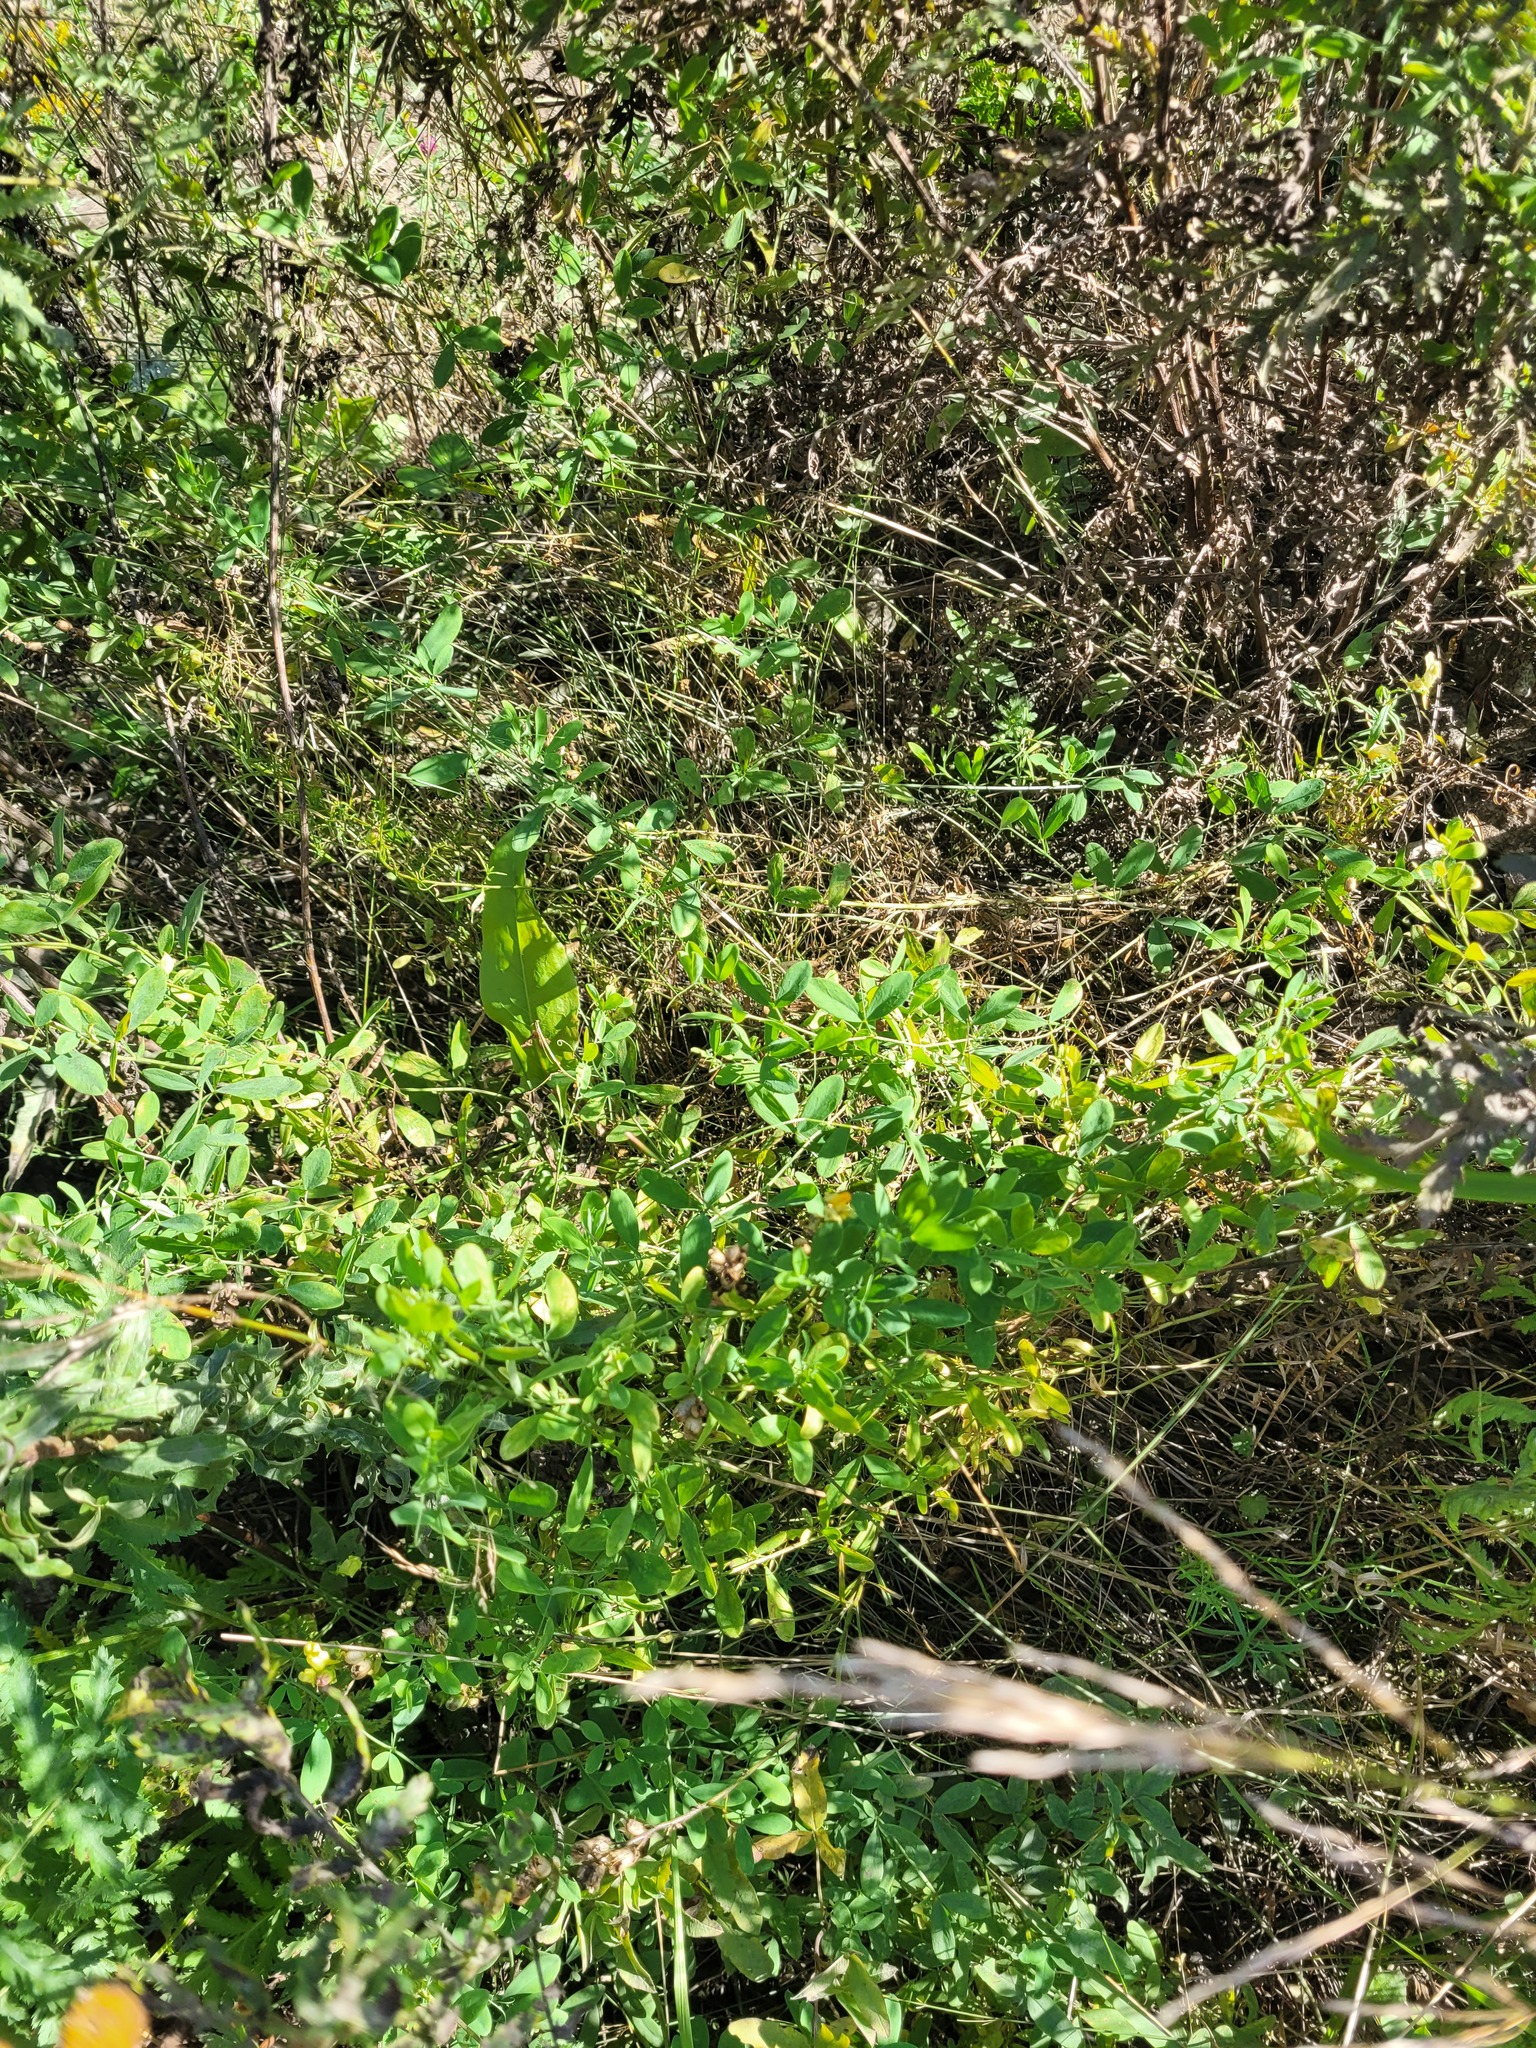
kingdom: Plantae
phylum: Tracheophyta
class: Magnoliopsida
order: Fabales
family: Fabaceae
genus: Lathyrus
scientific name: Lathyrus tuberosus
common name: Tuberous pea
